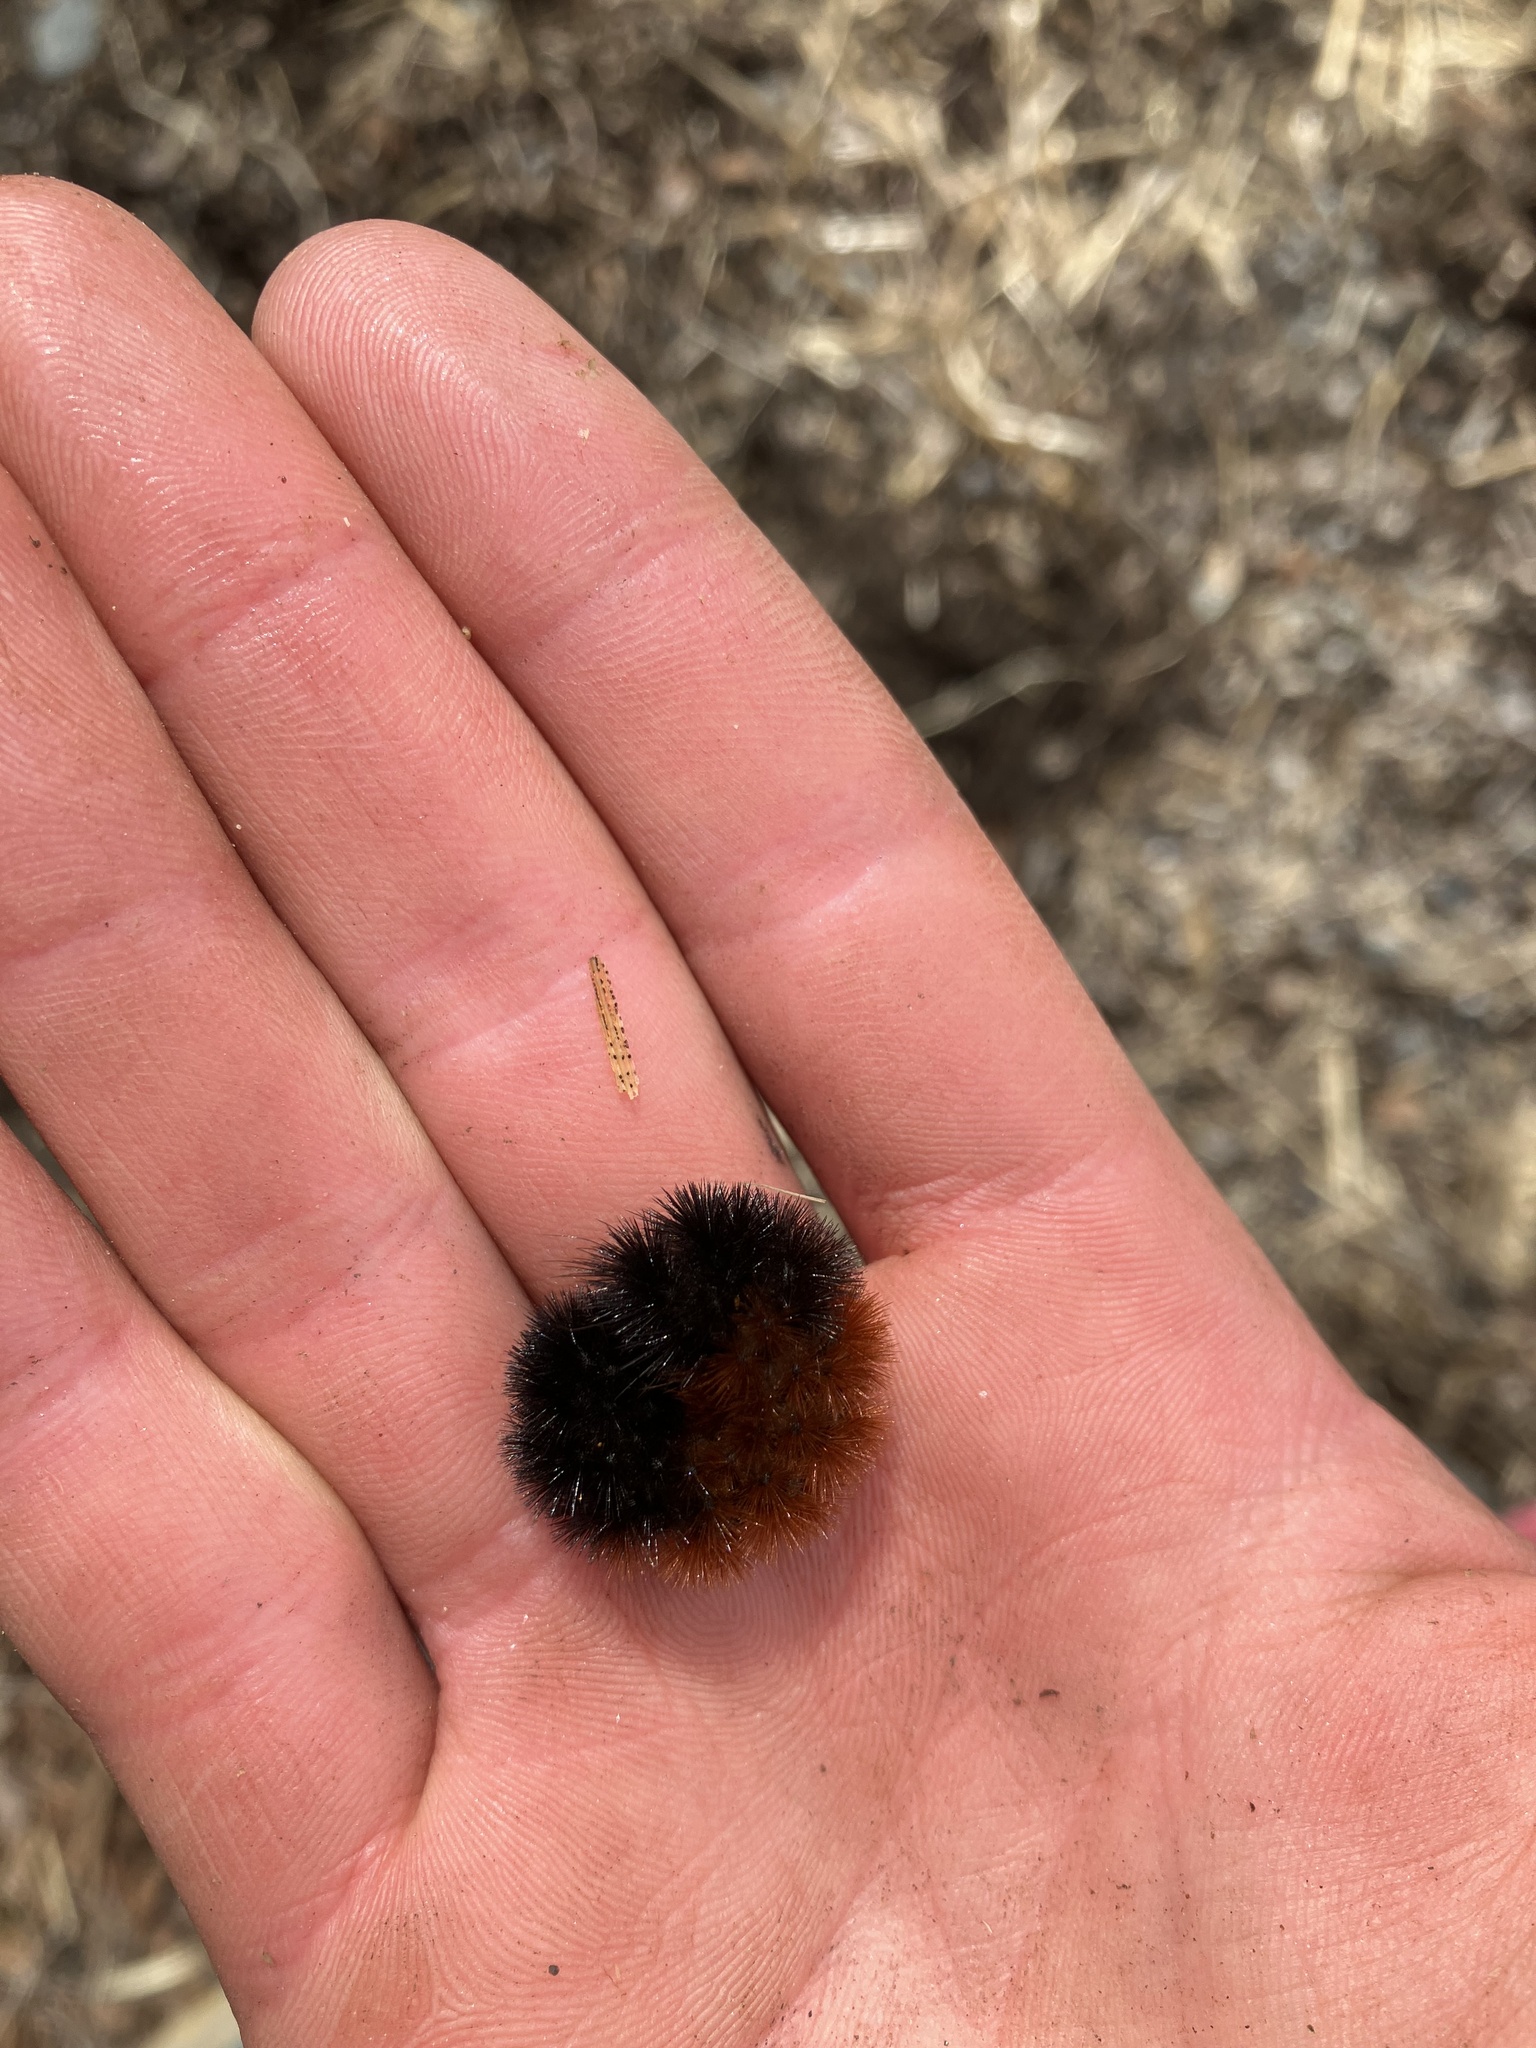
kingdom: Animalia
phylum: Arthropoda
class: Insecta
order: Lepidoptera
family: Erebidae
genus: Pyrrharctia
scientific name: Pyrrharctia isabella
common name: Isabella tiger moth
